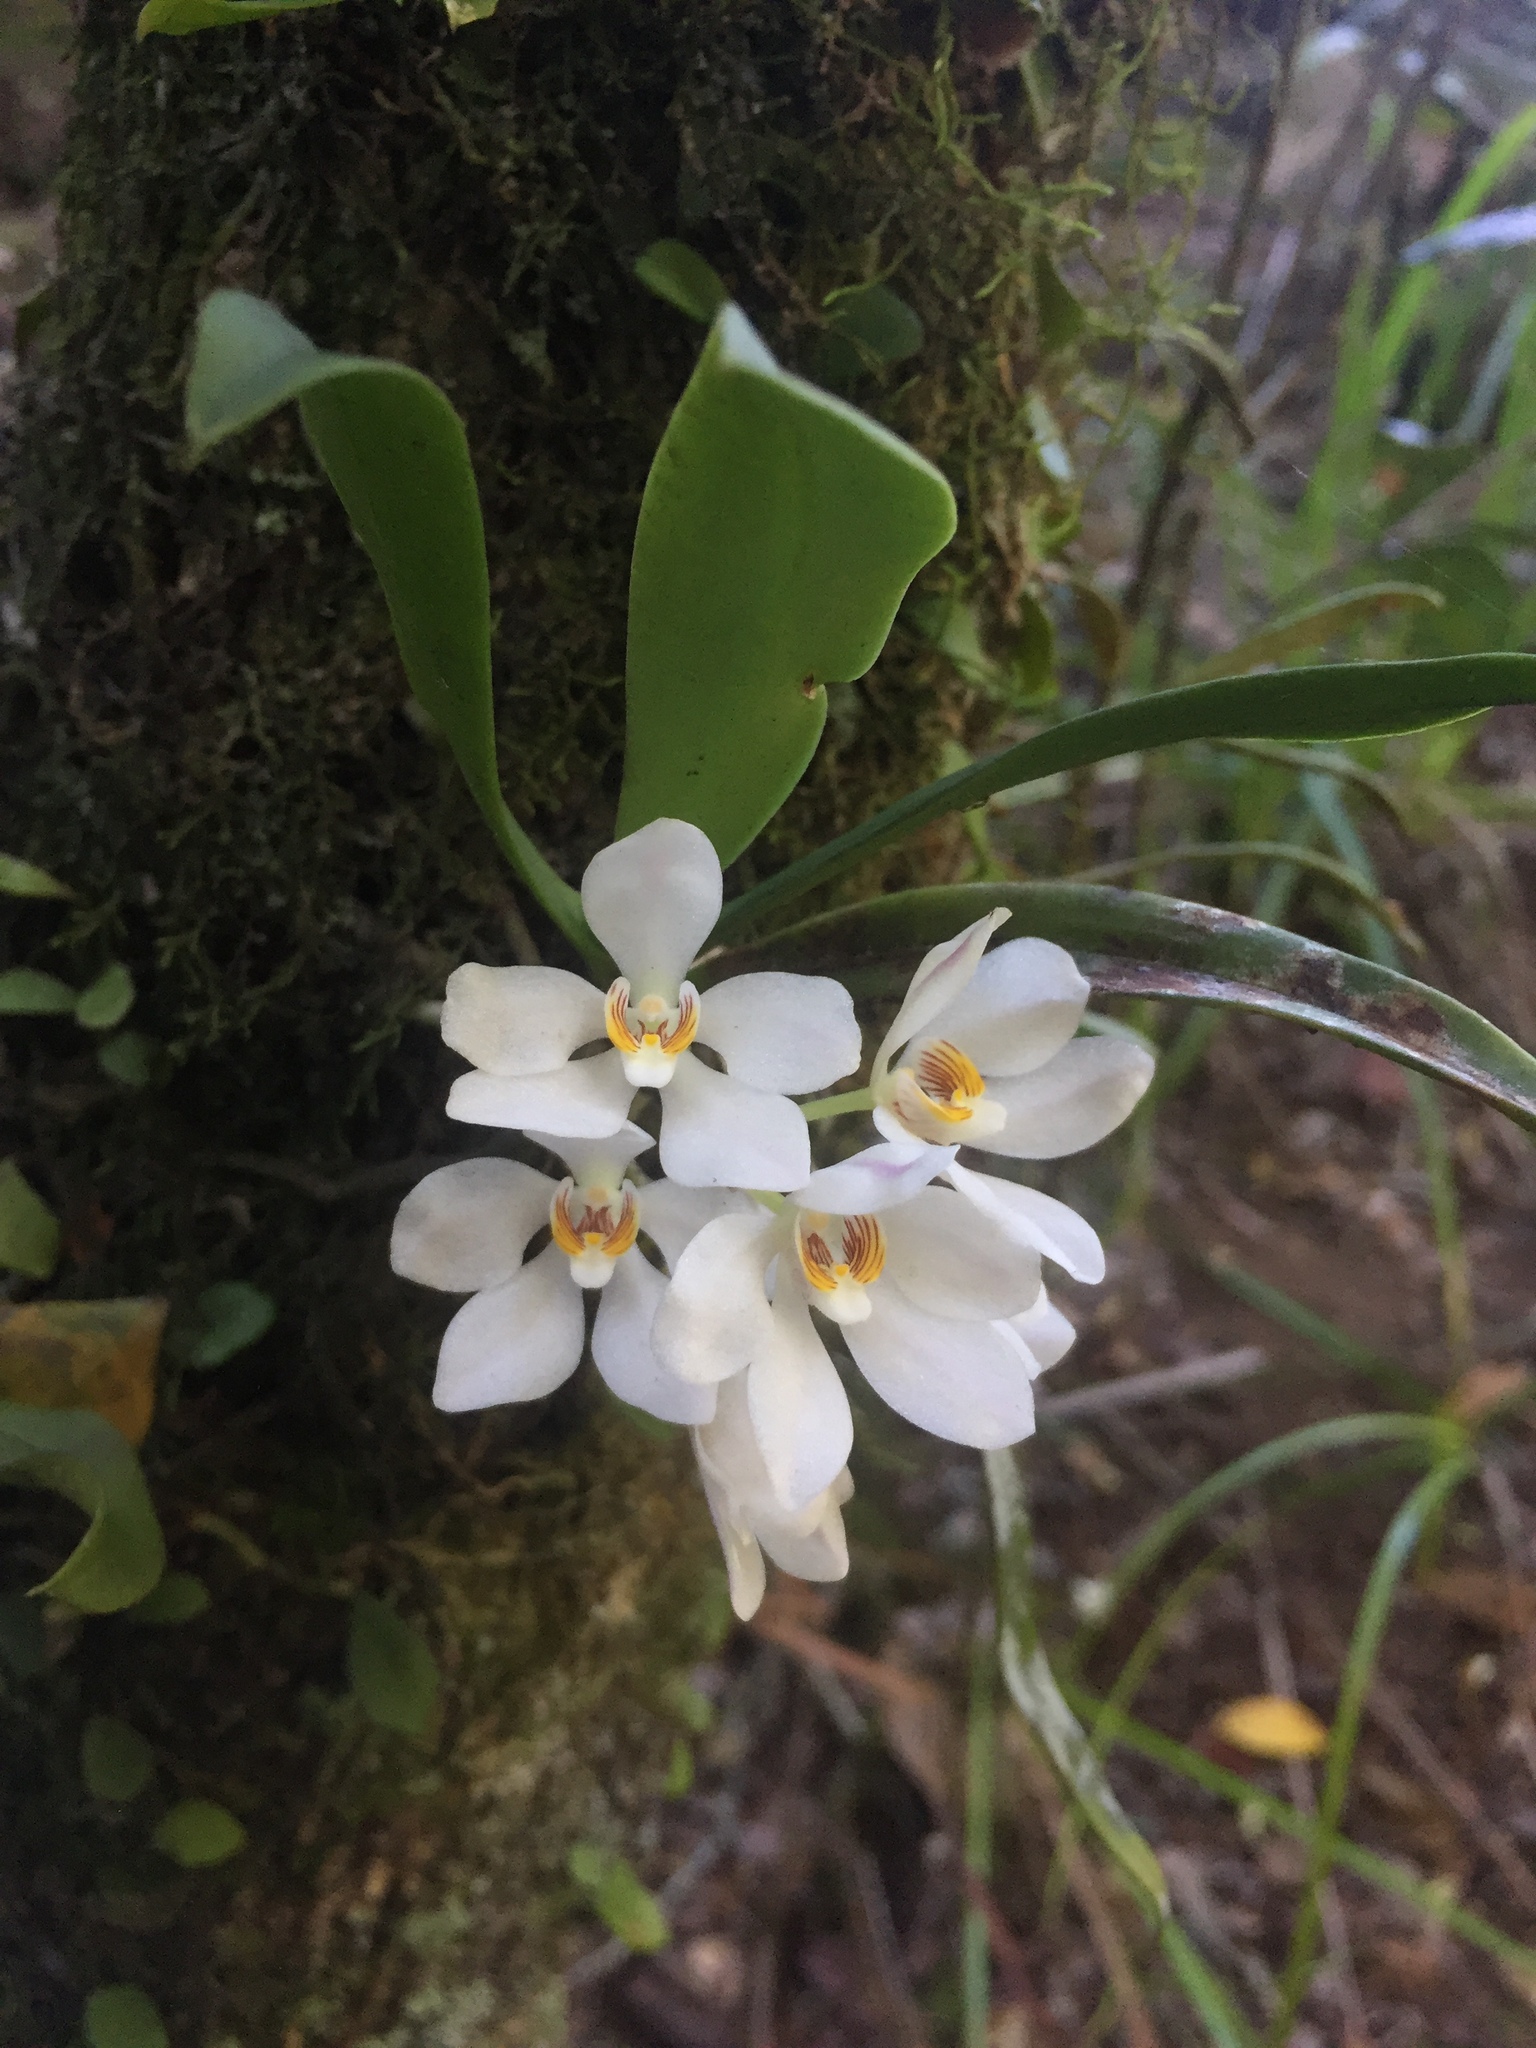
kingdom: Plantae
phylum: Tracheophyta
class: Liliopsida
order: Asparagales
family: Orchidaceae
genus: Sarcochilus
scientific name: Sarcochilus falcatus
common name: Orange blossom orchid
